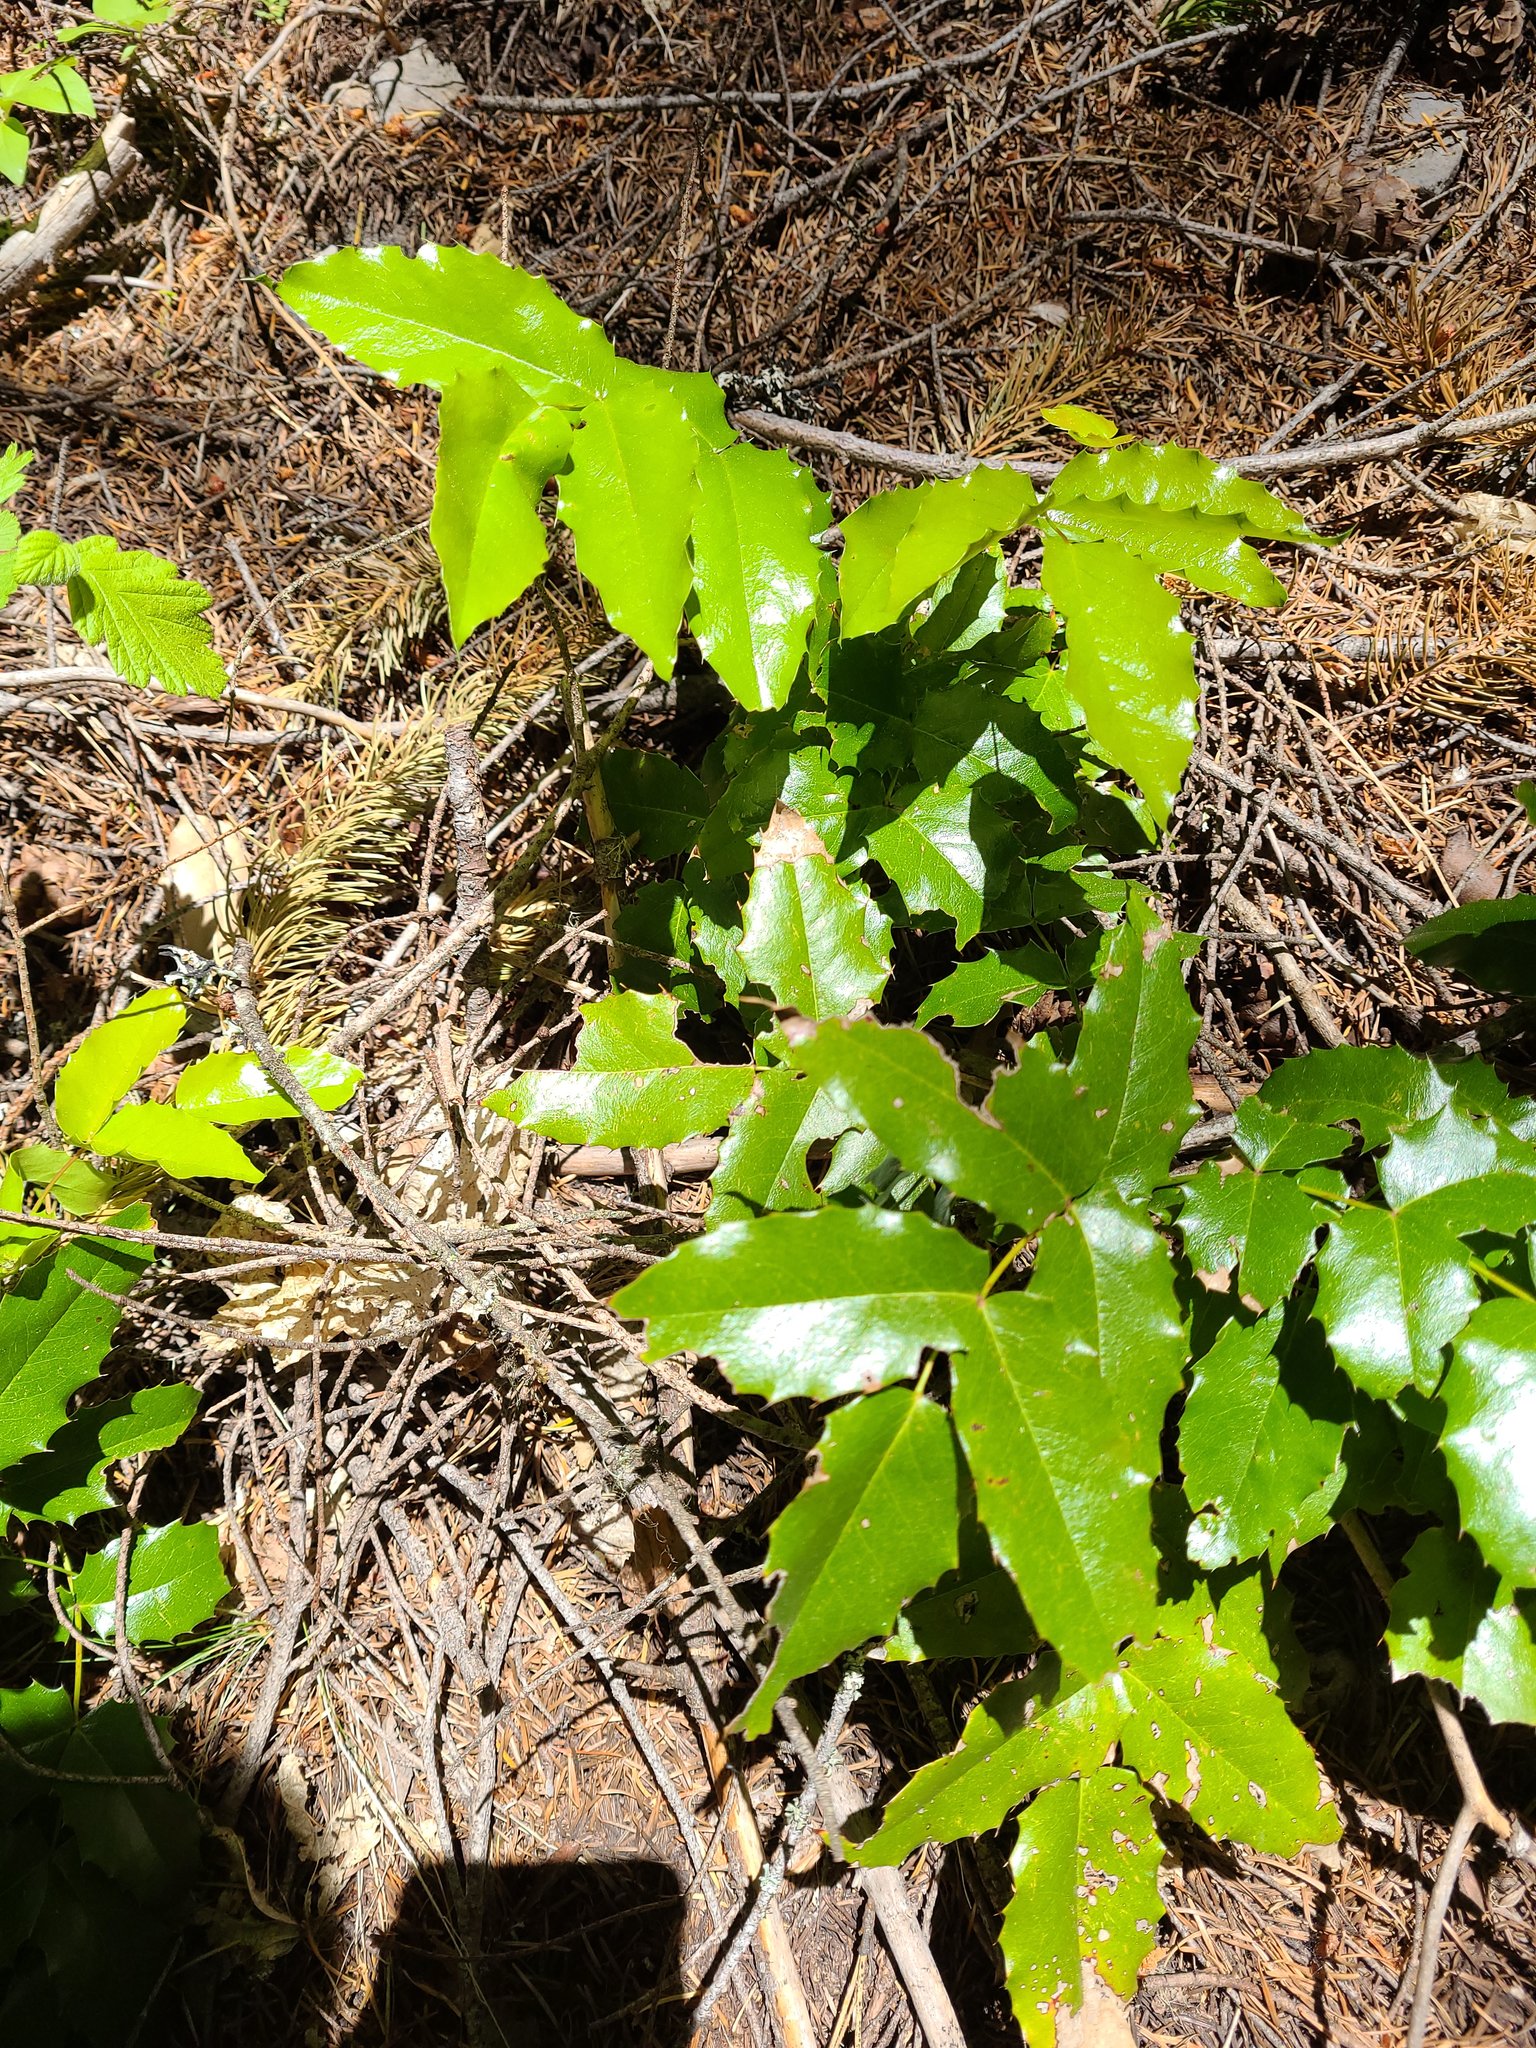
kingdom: Plantae
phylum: Tracheophyta
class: Magnoliopsida
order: Ranunculales
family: Berberidaceae
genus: Mahonia
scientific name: Mahonia aquifolium
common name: Oregon-grape
